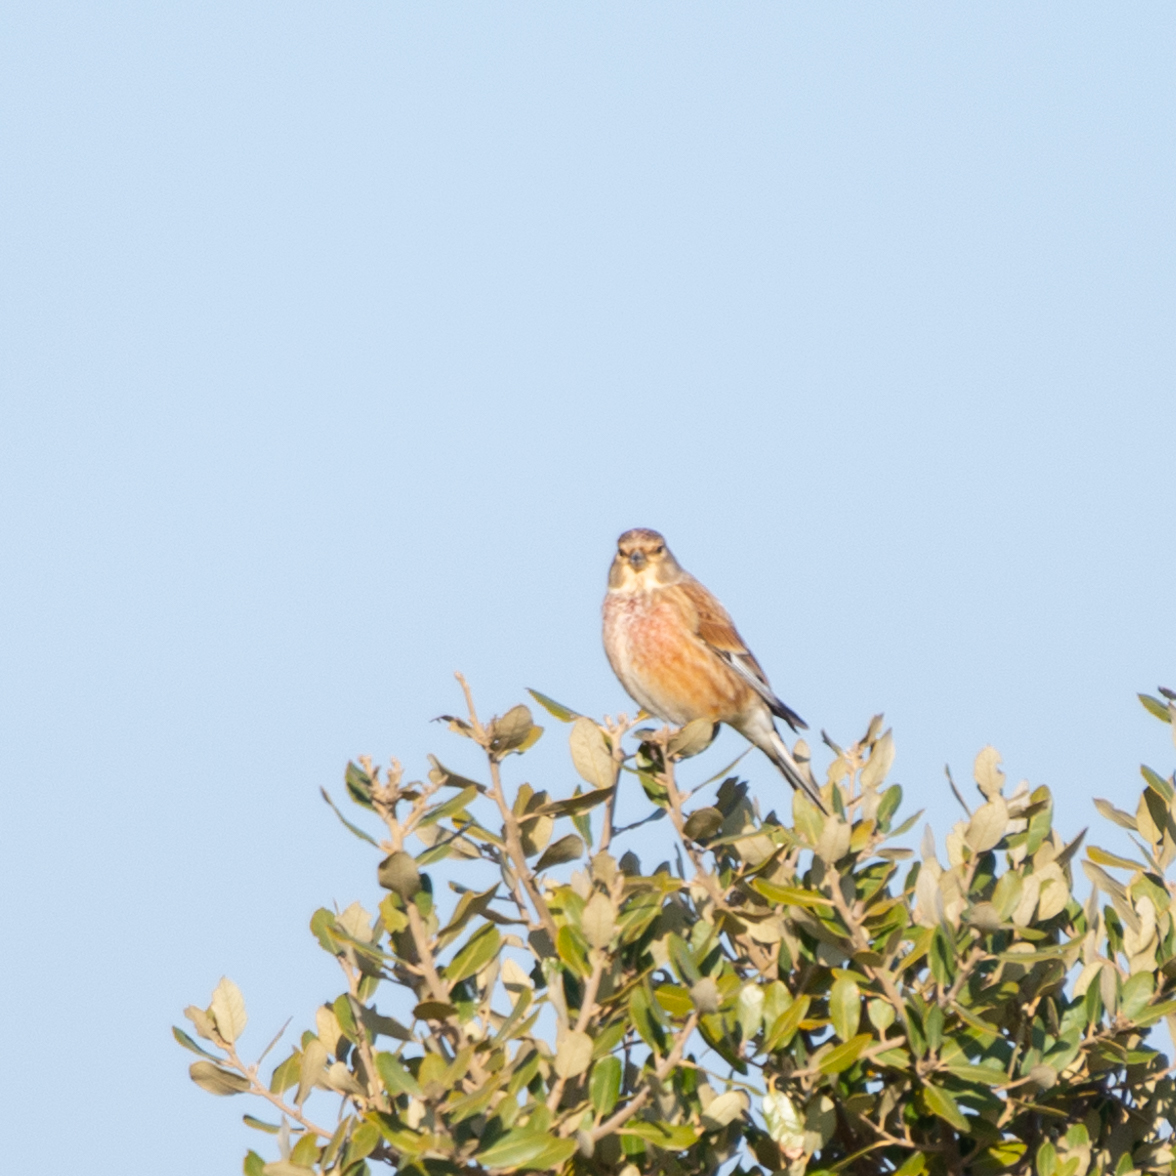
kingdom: Animalia
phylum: Chordata
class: Aves
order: Passeriformes
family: Fringillidae
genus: Linaria
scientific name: Linaria cannabina
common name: Common linnet
